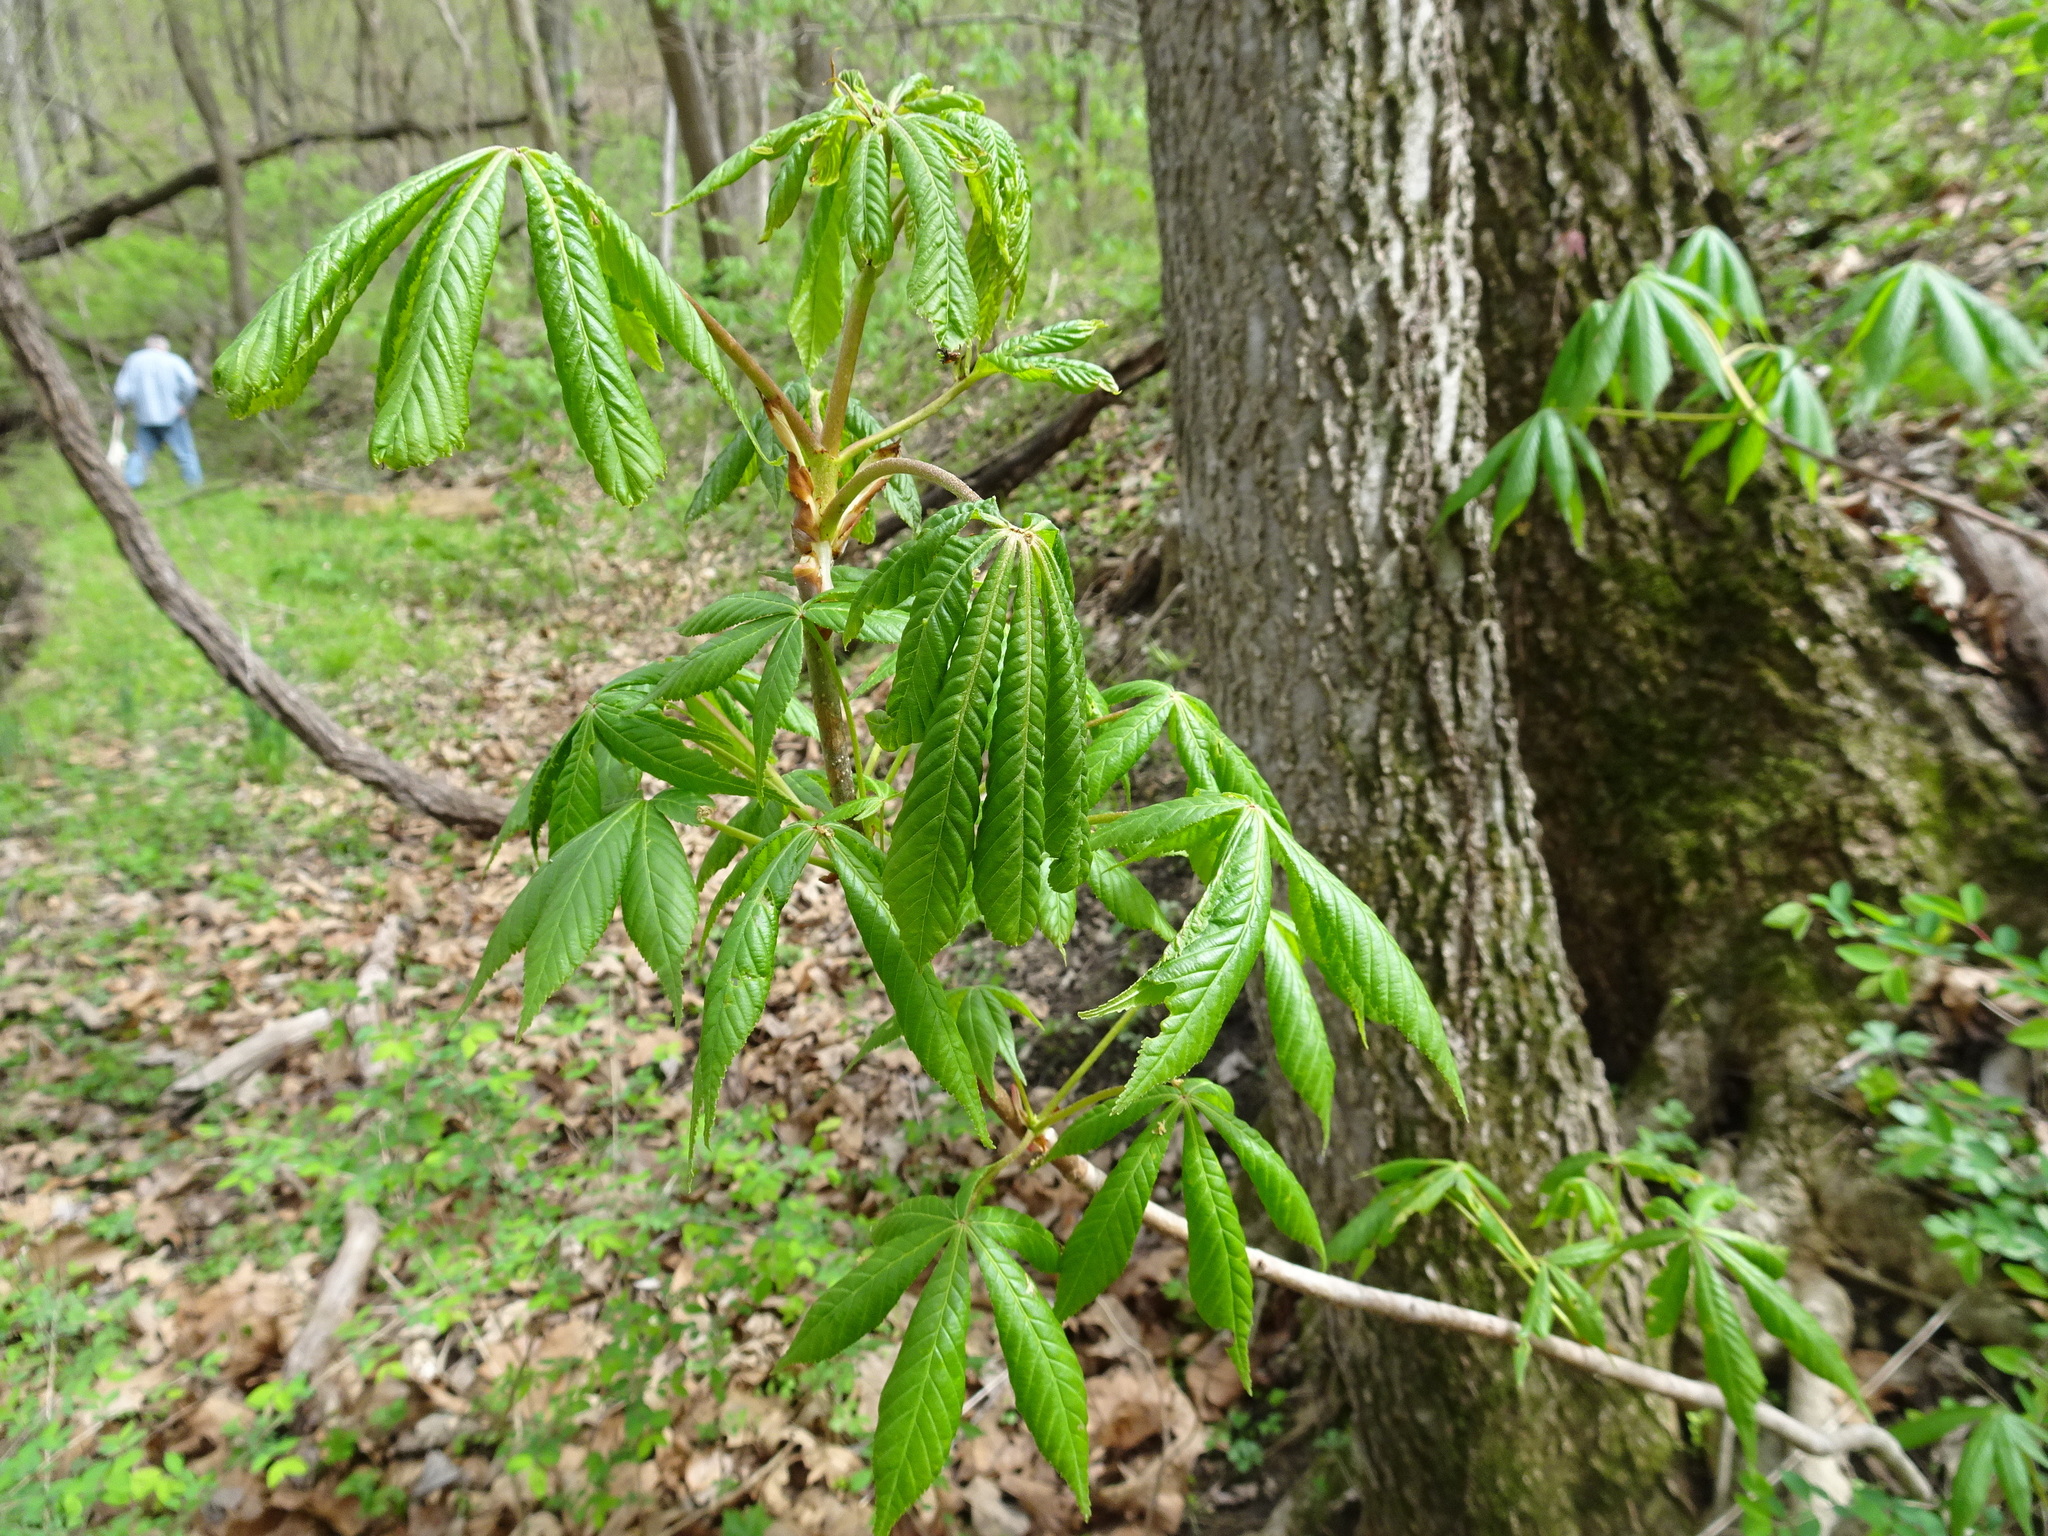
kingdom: Plantae
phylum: Tracheophyta
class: Magnoliopsida
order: Sapindales
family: Sapindaceae
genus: Aesculus
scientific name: Aesculus glabra
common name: Ohio buckeye
